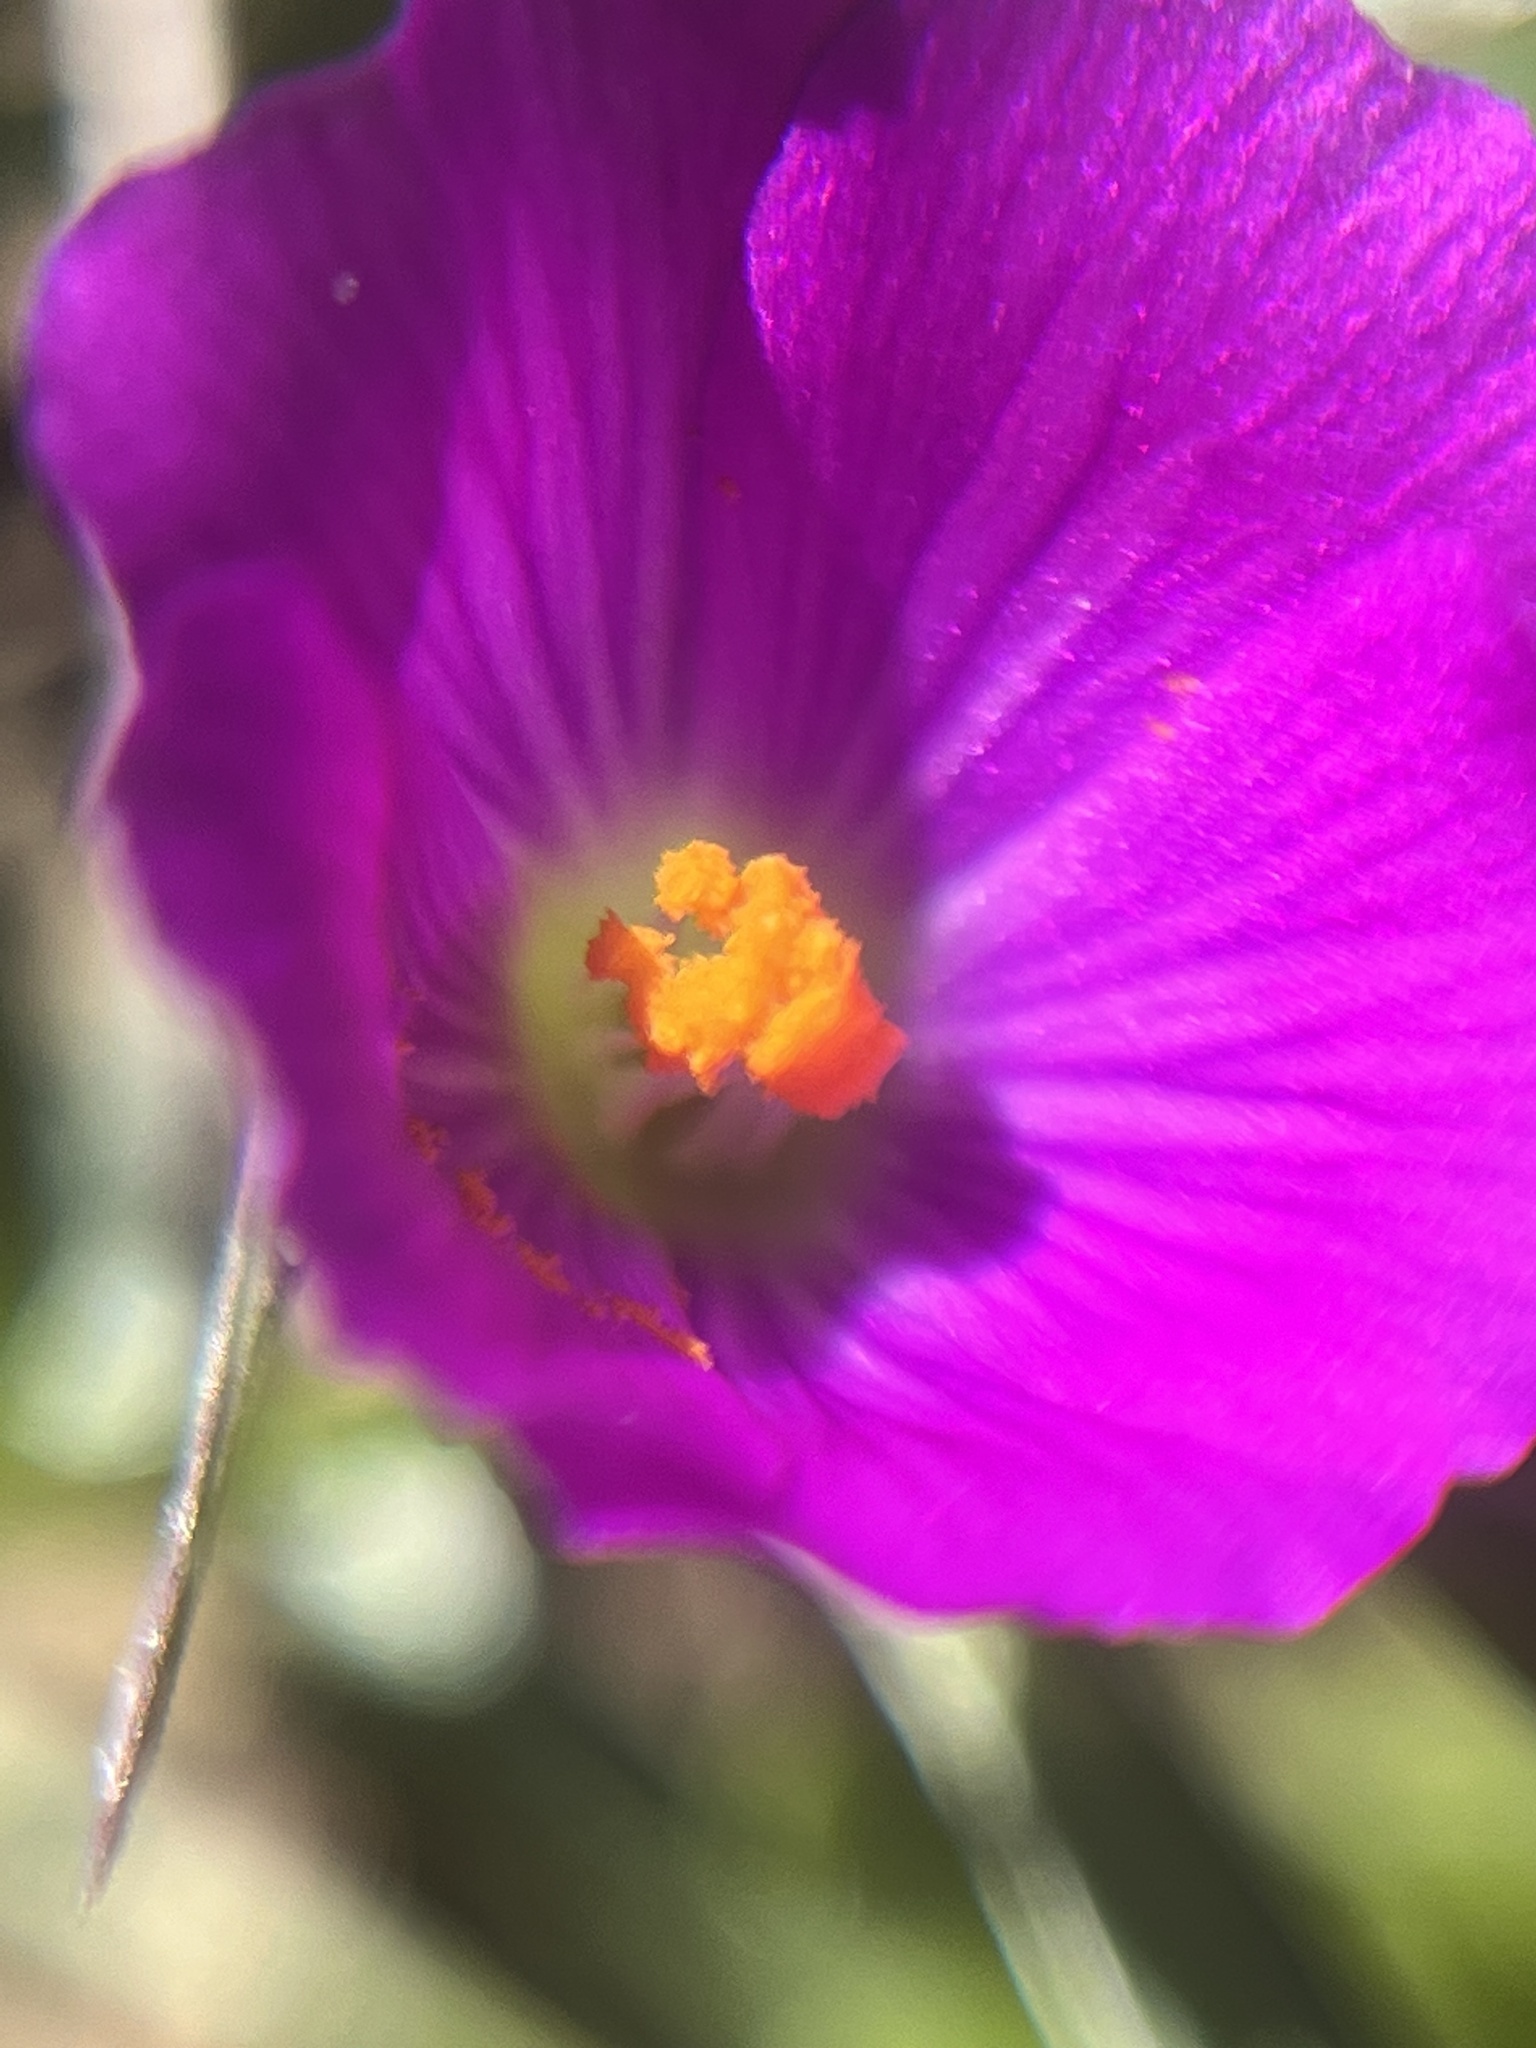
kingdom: Plantae
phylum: Tracheophyta
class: Magnoliopsida
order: Caryophyllales
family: Montiaceae
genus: Calandrinia
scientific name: Calandrinia menziesii
